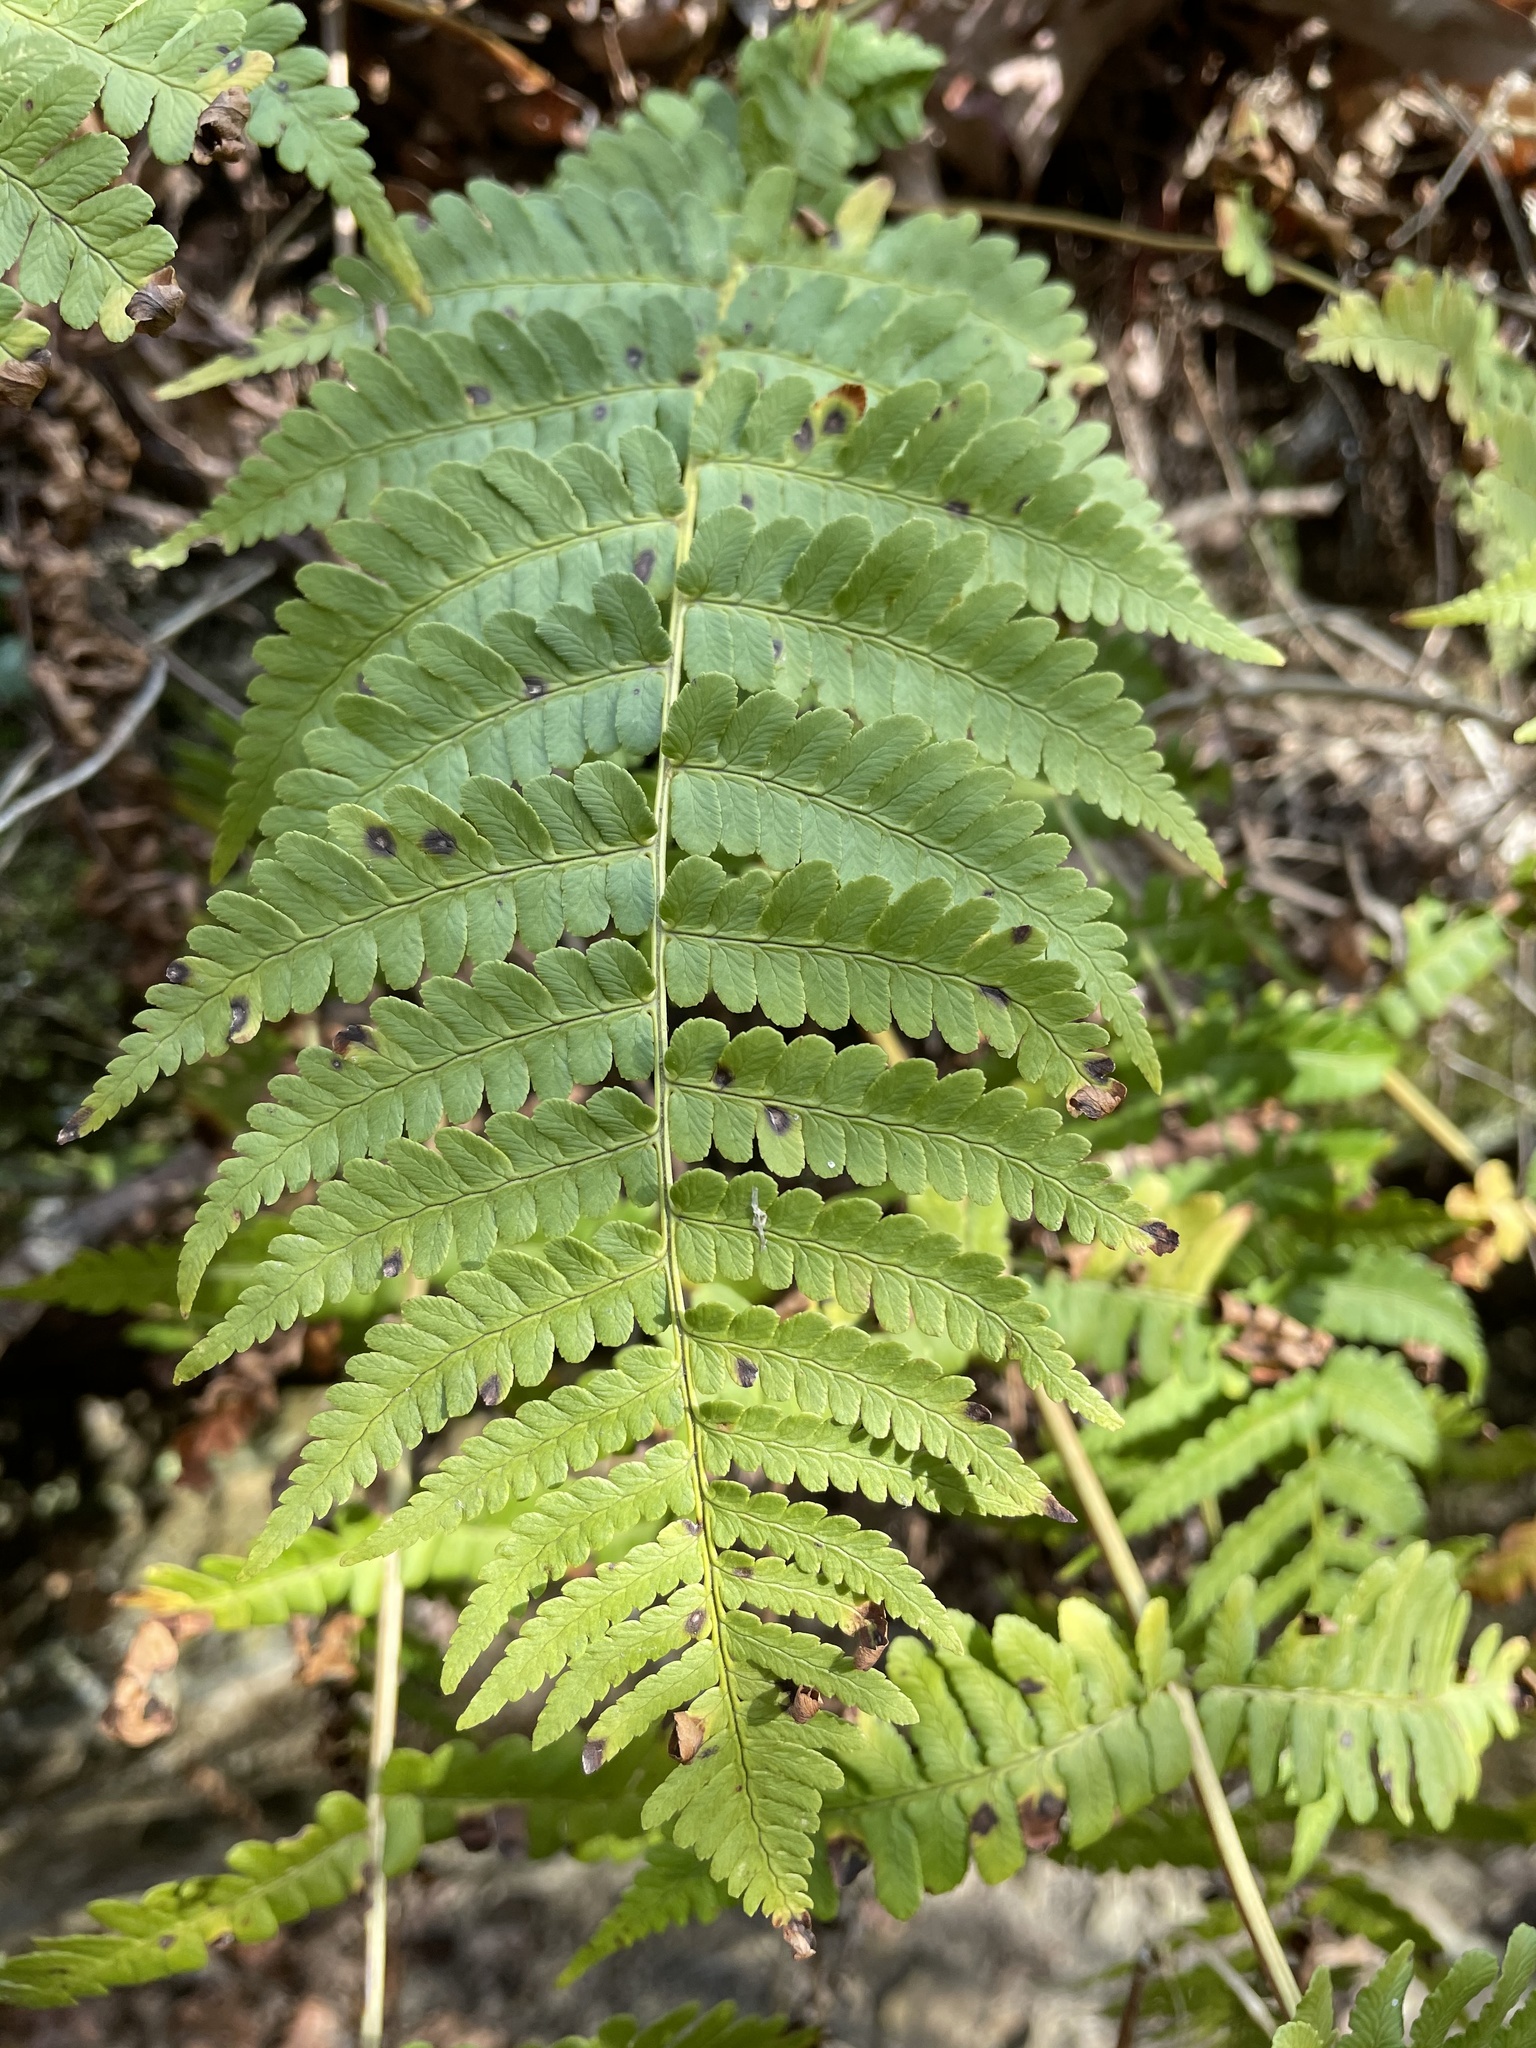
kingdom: Plantae
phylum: Tracheophyta
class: Polypodiopsida
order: Polypodiales
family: Dryopteridaceae
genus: Dryopteris
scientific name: Dryopteris marginalis
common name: Marginal wood fern
